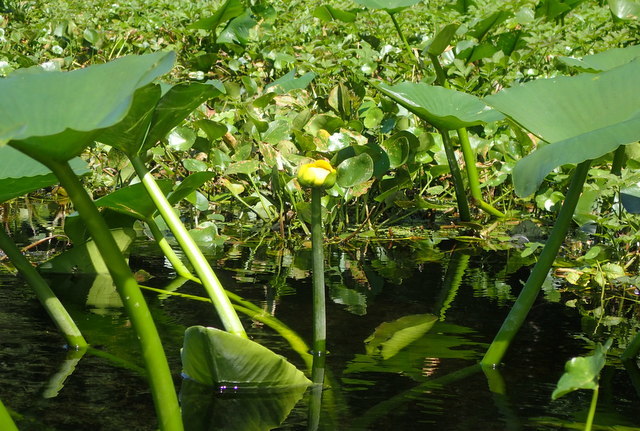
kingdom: Plantae
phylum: Tracheophyta
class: Magnoliopsida
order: Nymphaeales
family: Nymphaeaceae
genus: Nuphar
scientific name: Nuphar advena
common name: Spatter-dock
